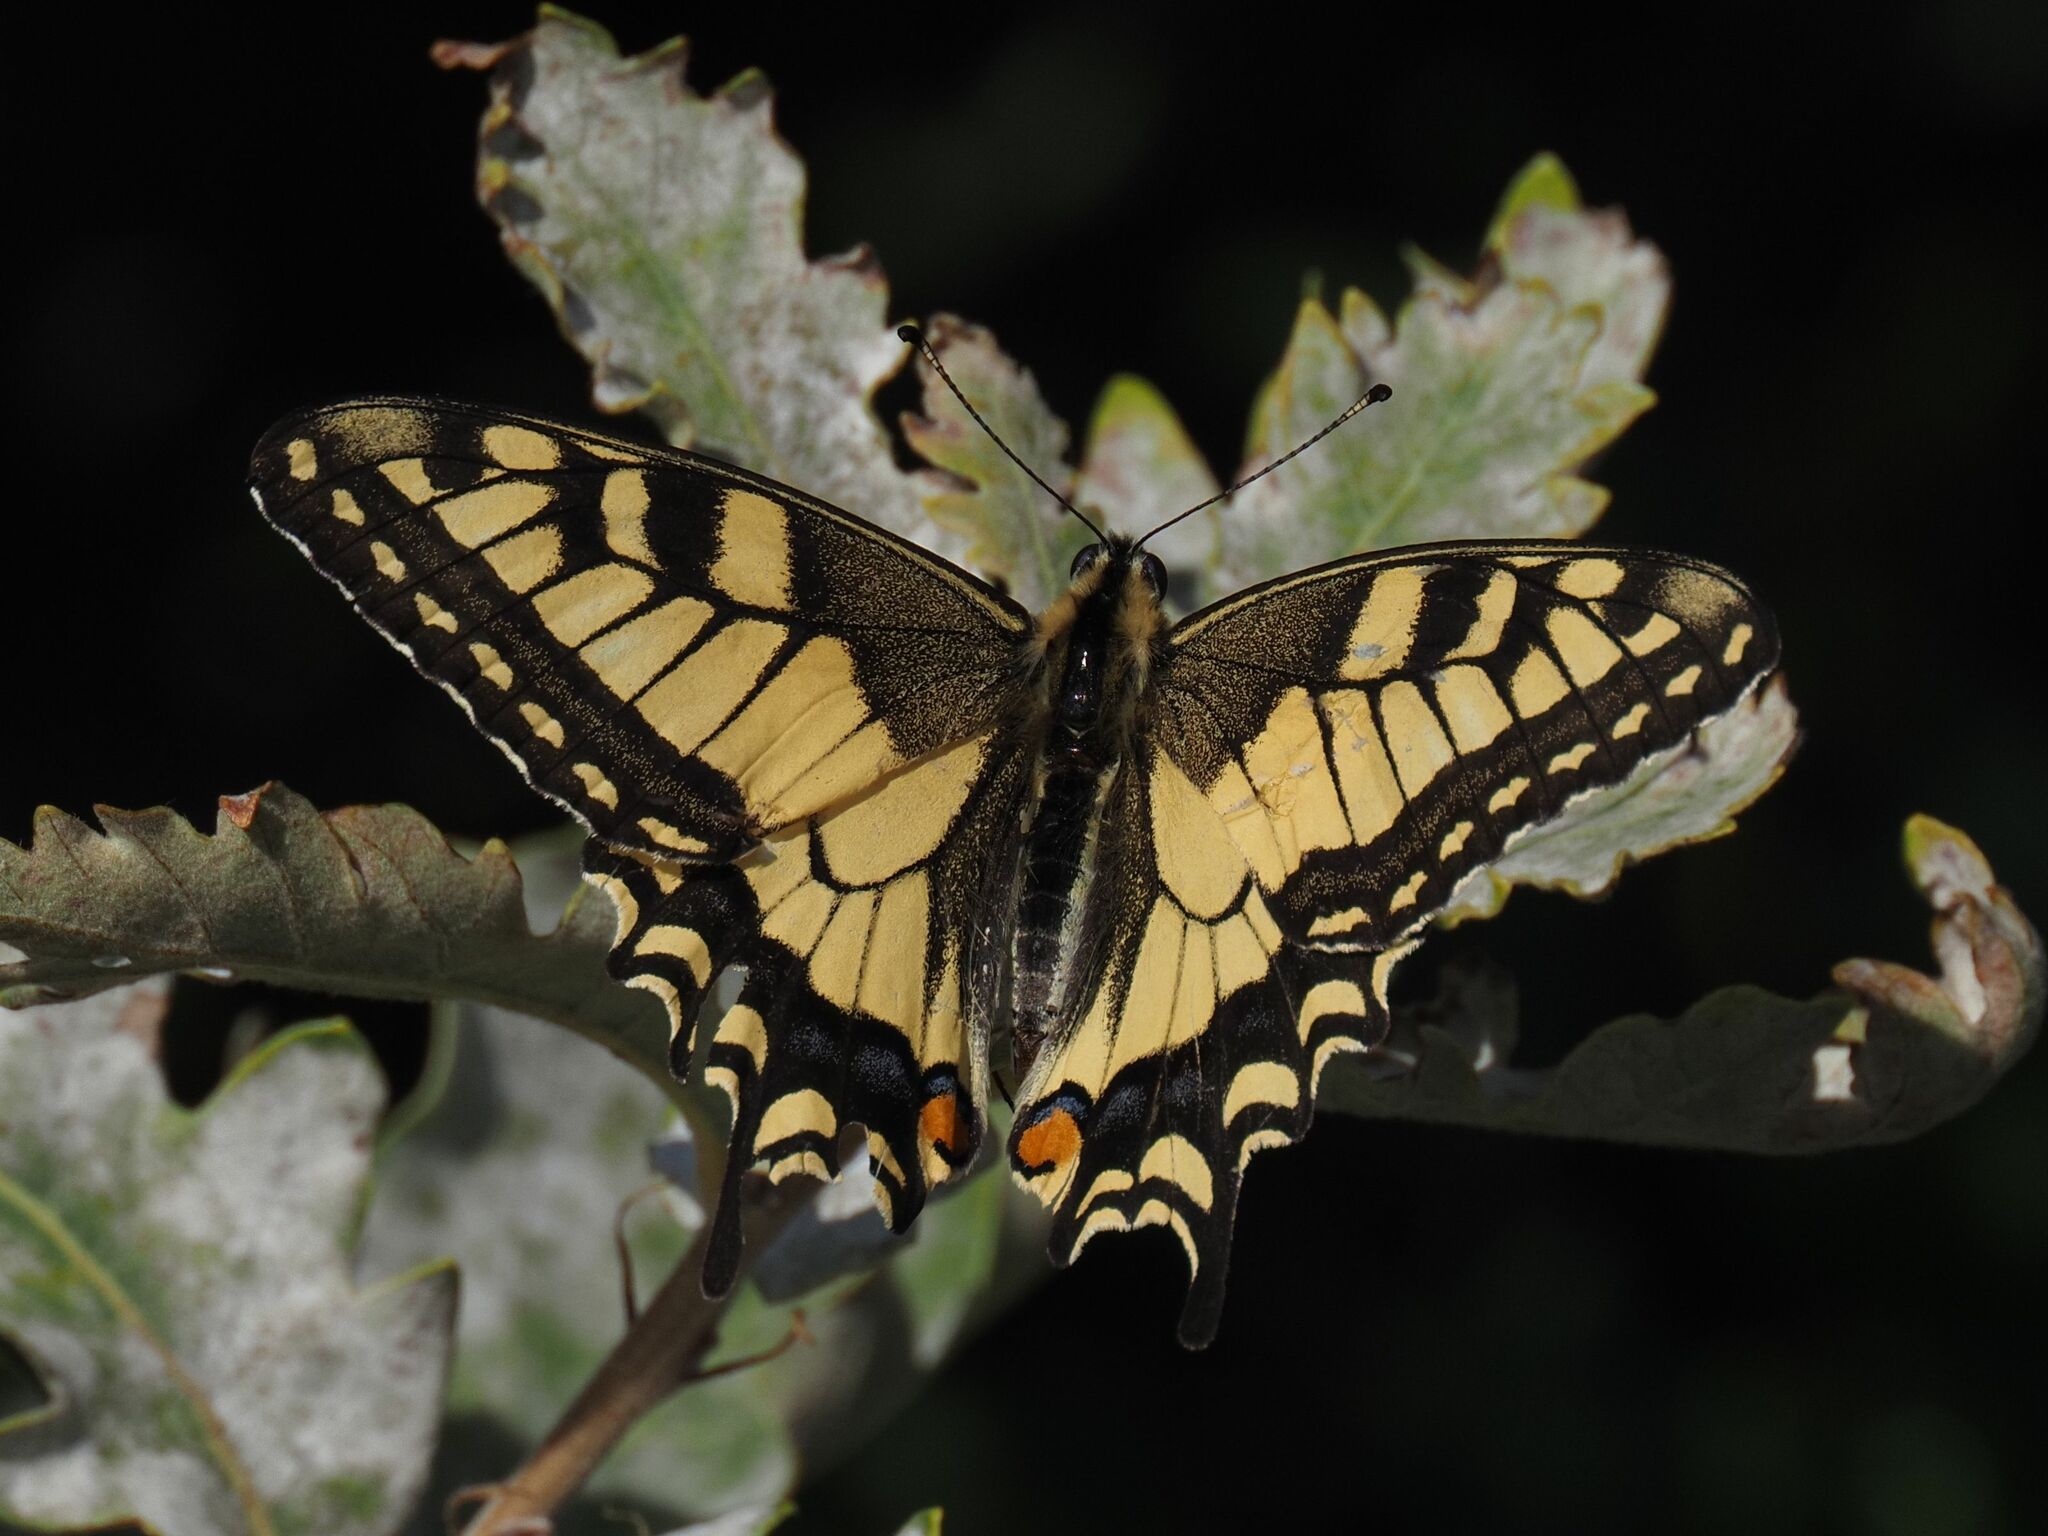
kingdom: Animalia
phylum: Arthropoda
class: Insecta
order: Lepidoptera
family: Papilionidae
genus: Papilio
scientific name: Papilio machaon
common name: Swallowtail
